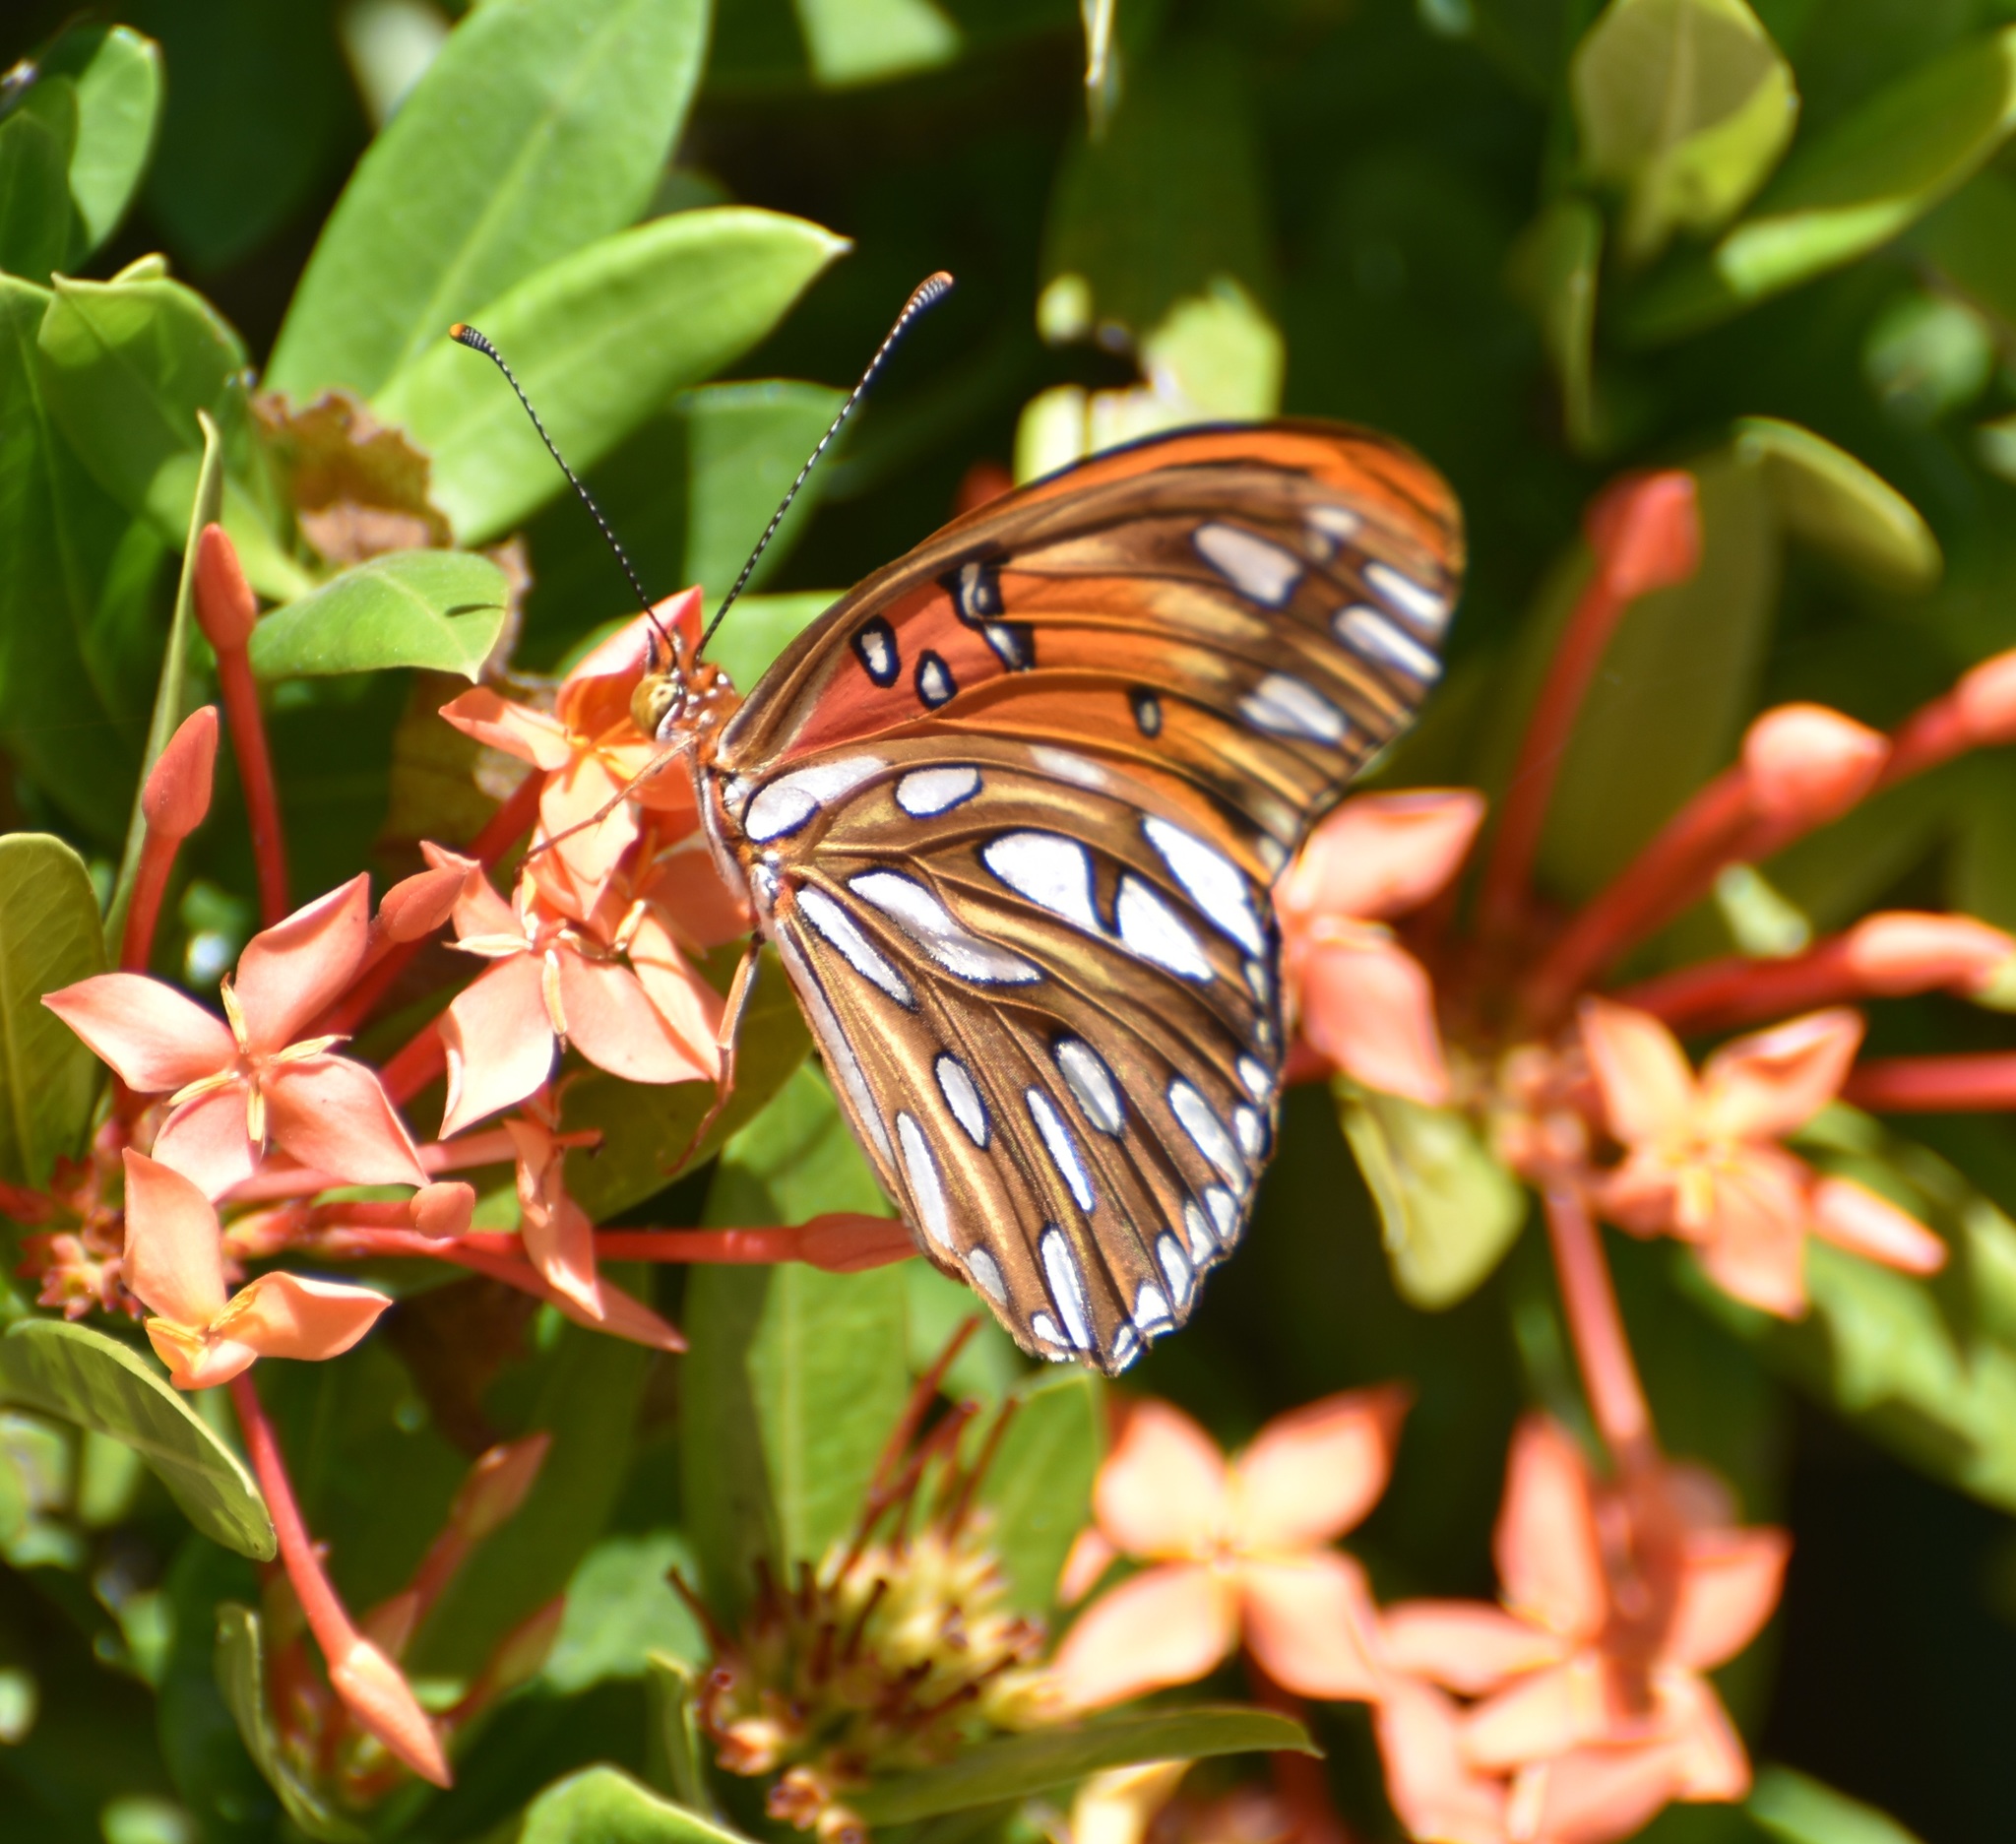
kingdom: Animalia
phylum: Arthropoda
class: Insecta
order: Lepidoptera
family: Nymphalidae
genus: Dione
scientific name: Dione vanillae
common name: Gulf fritillary
